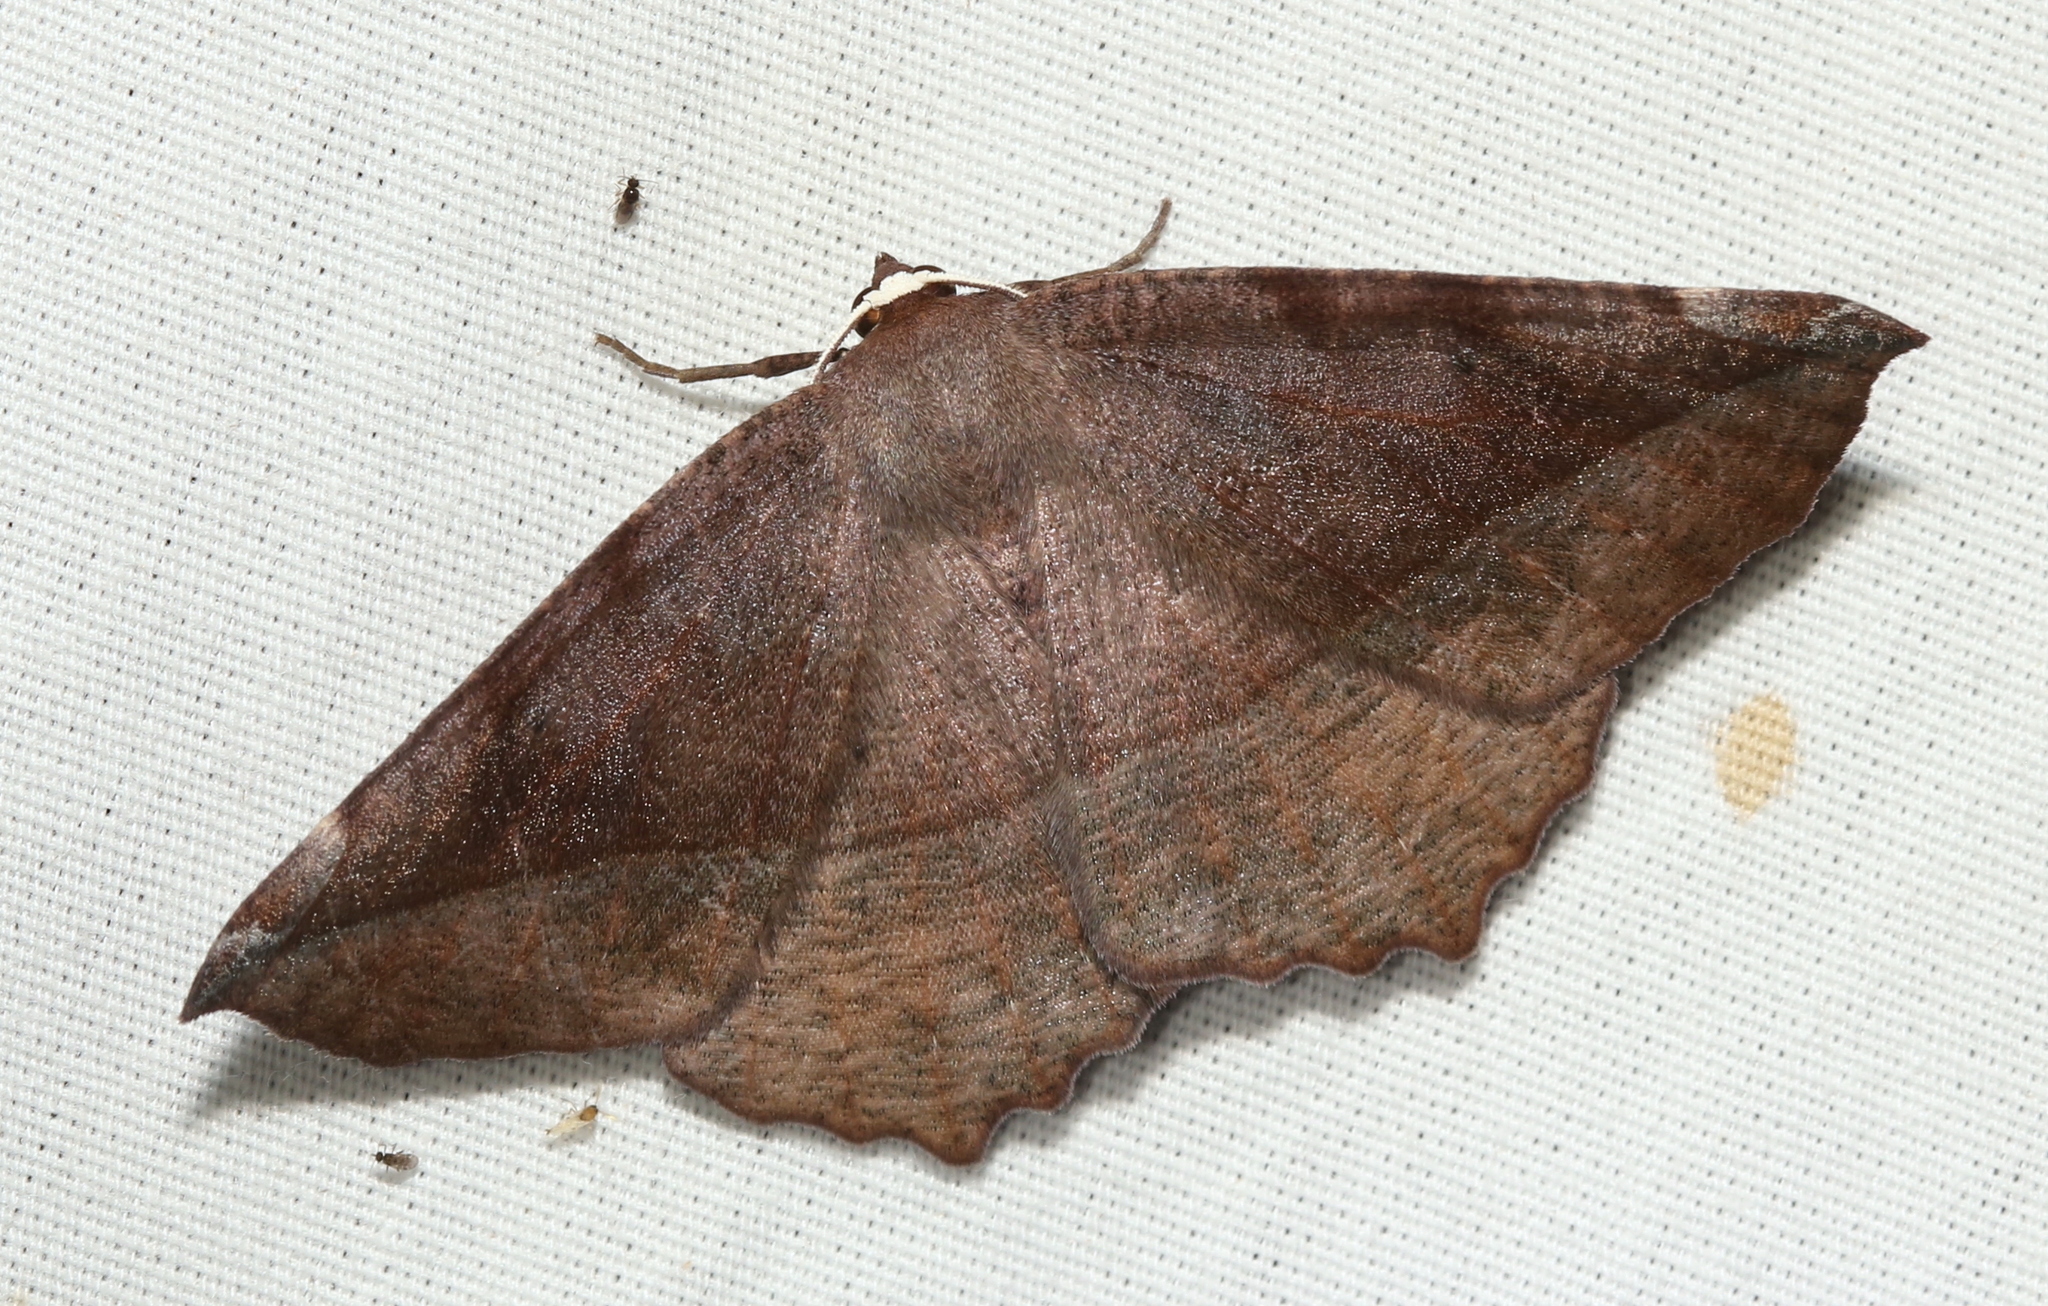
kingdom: Animalia
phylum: Arthropoda
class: Insecta
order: Lepidoptera
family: Geometridae
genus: Eutrapela
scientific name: Eutrapela clemataria
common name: Curved-toothed geometer
